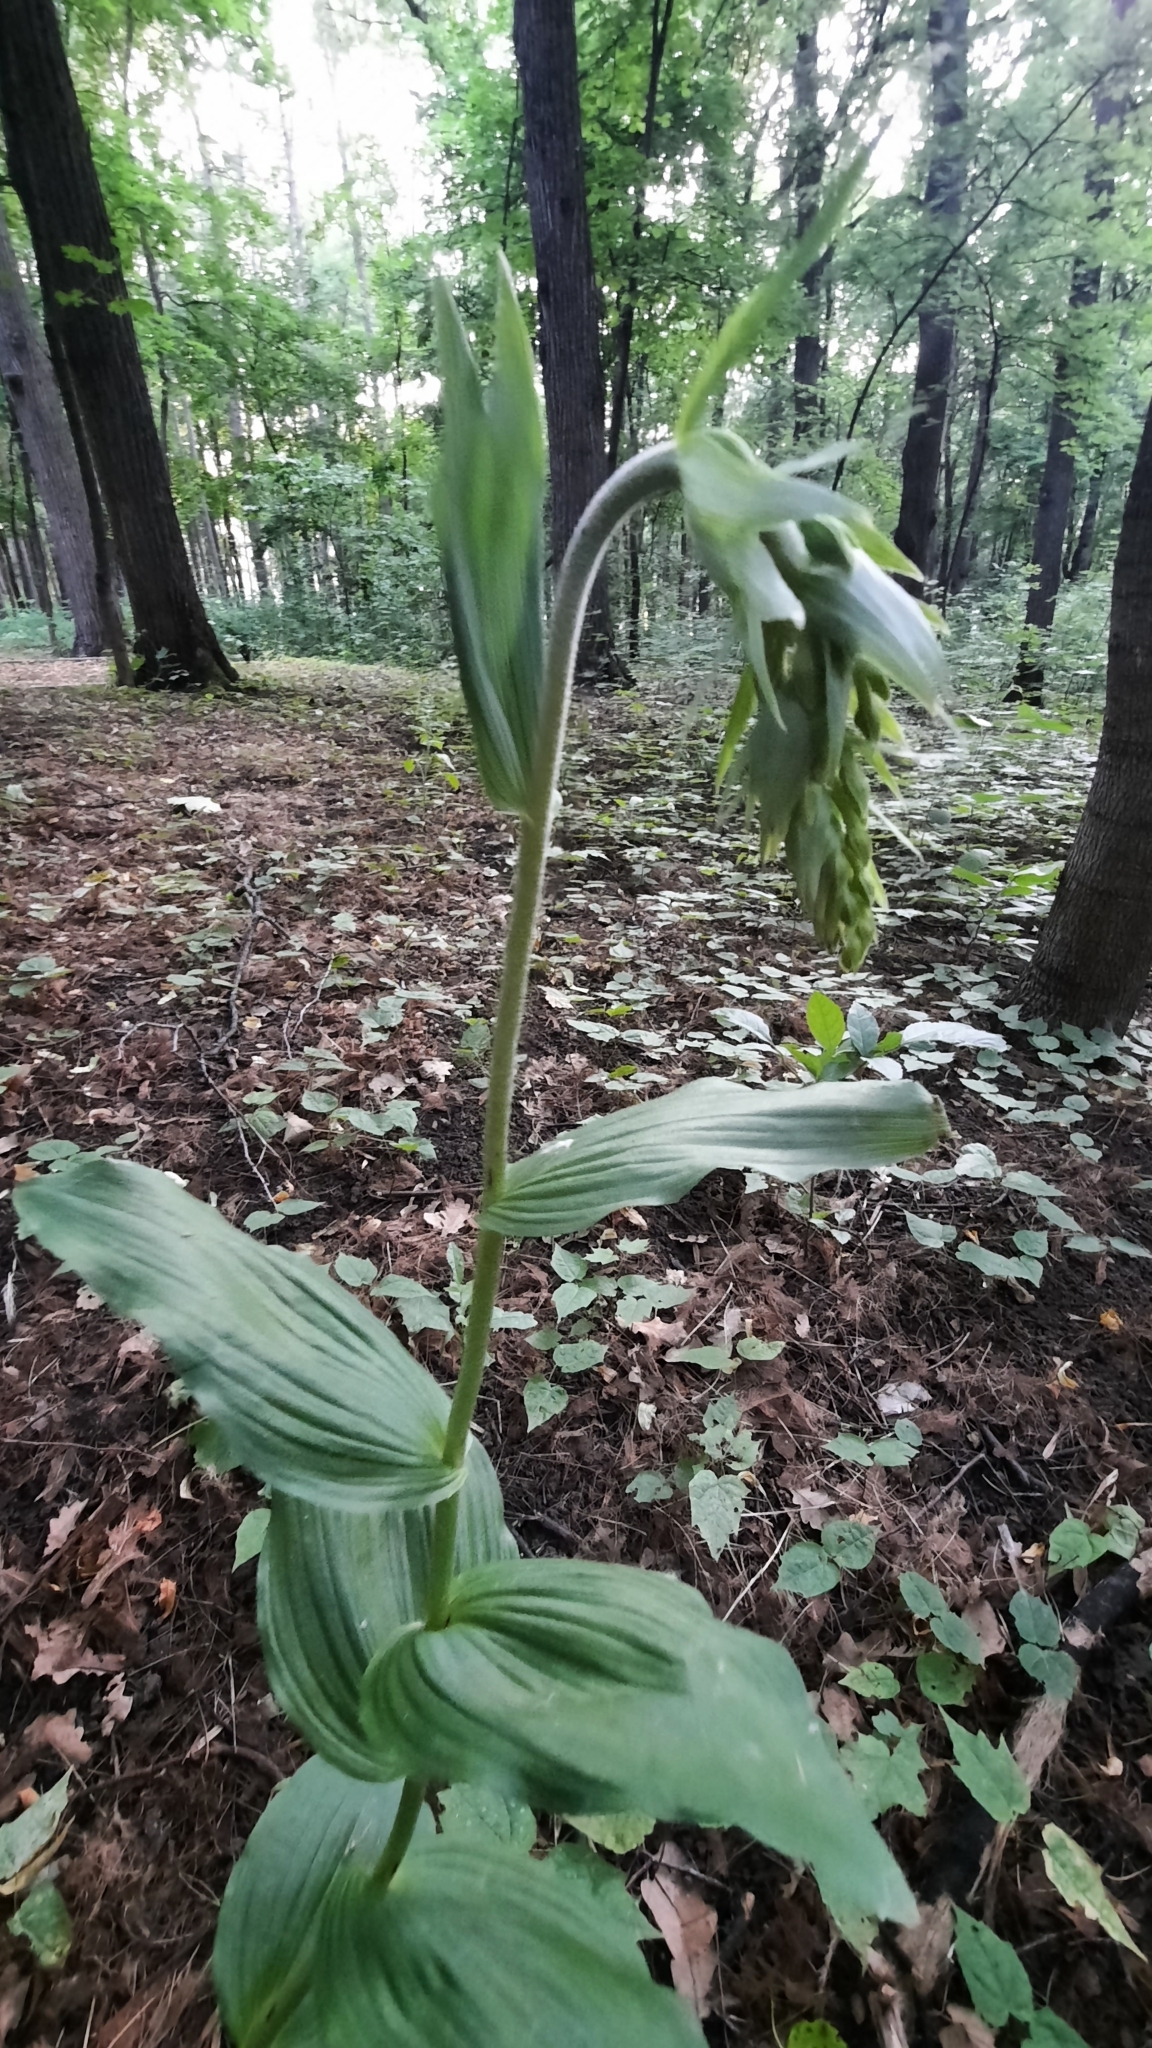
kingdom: Plantae
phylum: Tracheophyta
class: Liliopsida
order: Asparagales
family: Orchidaceae
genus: Epipactis
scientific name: Epipactis helleborine
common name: Broad-leaved helleborine
